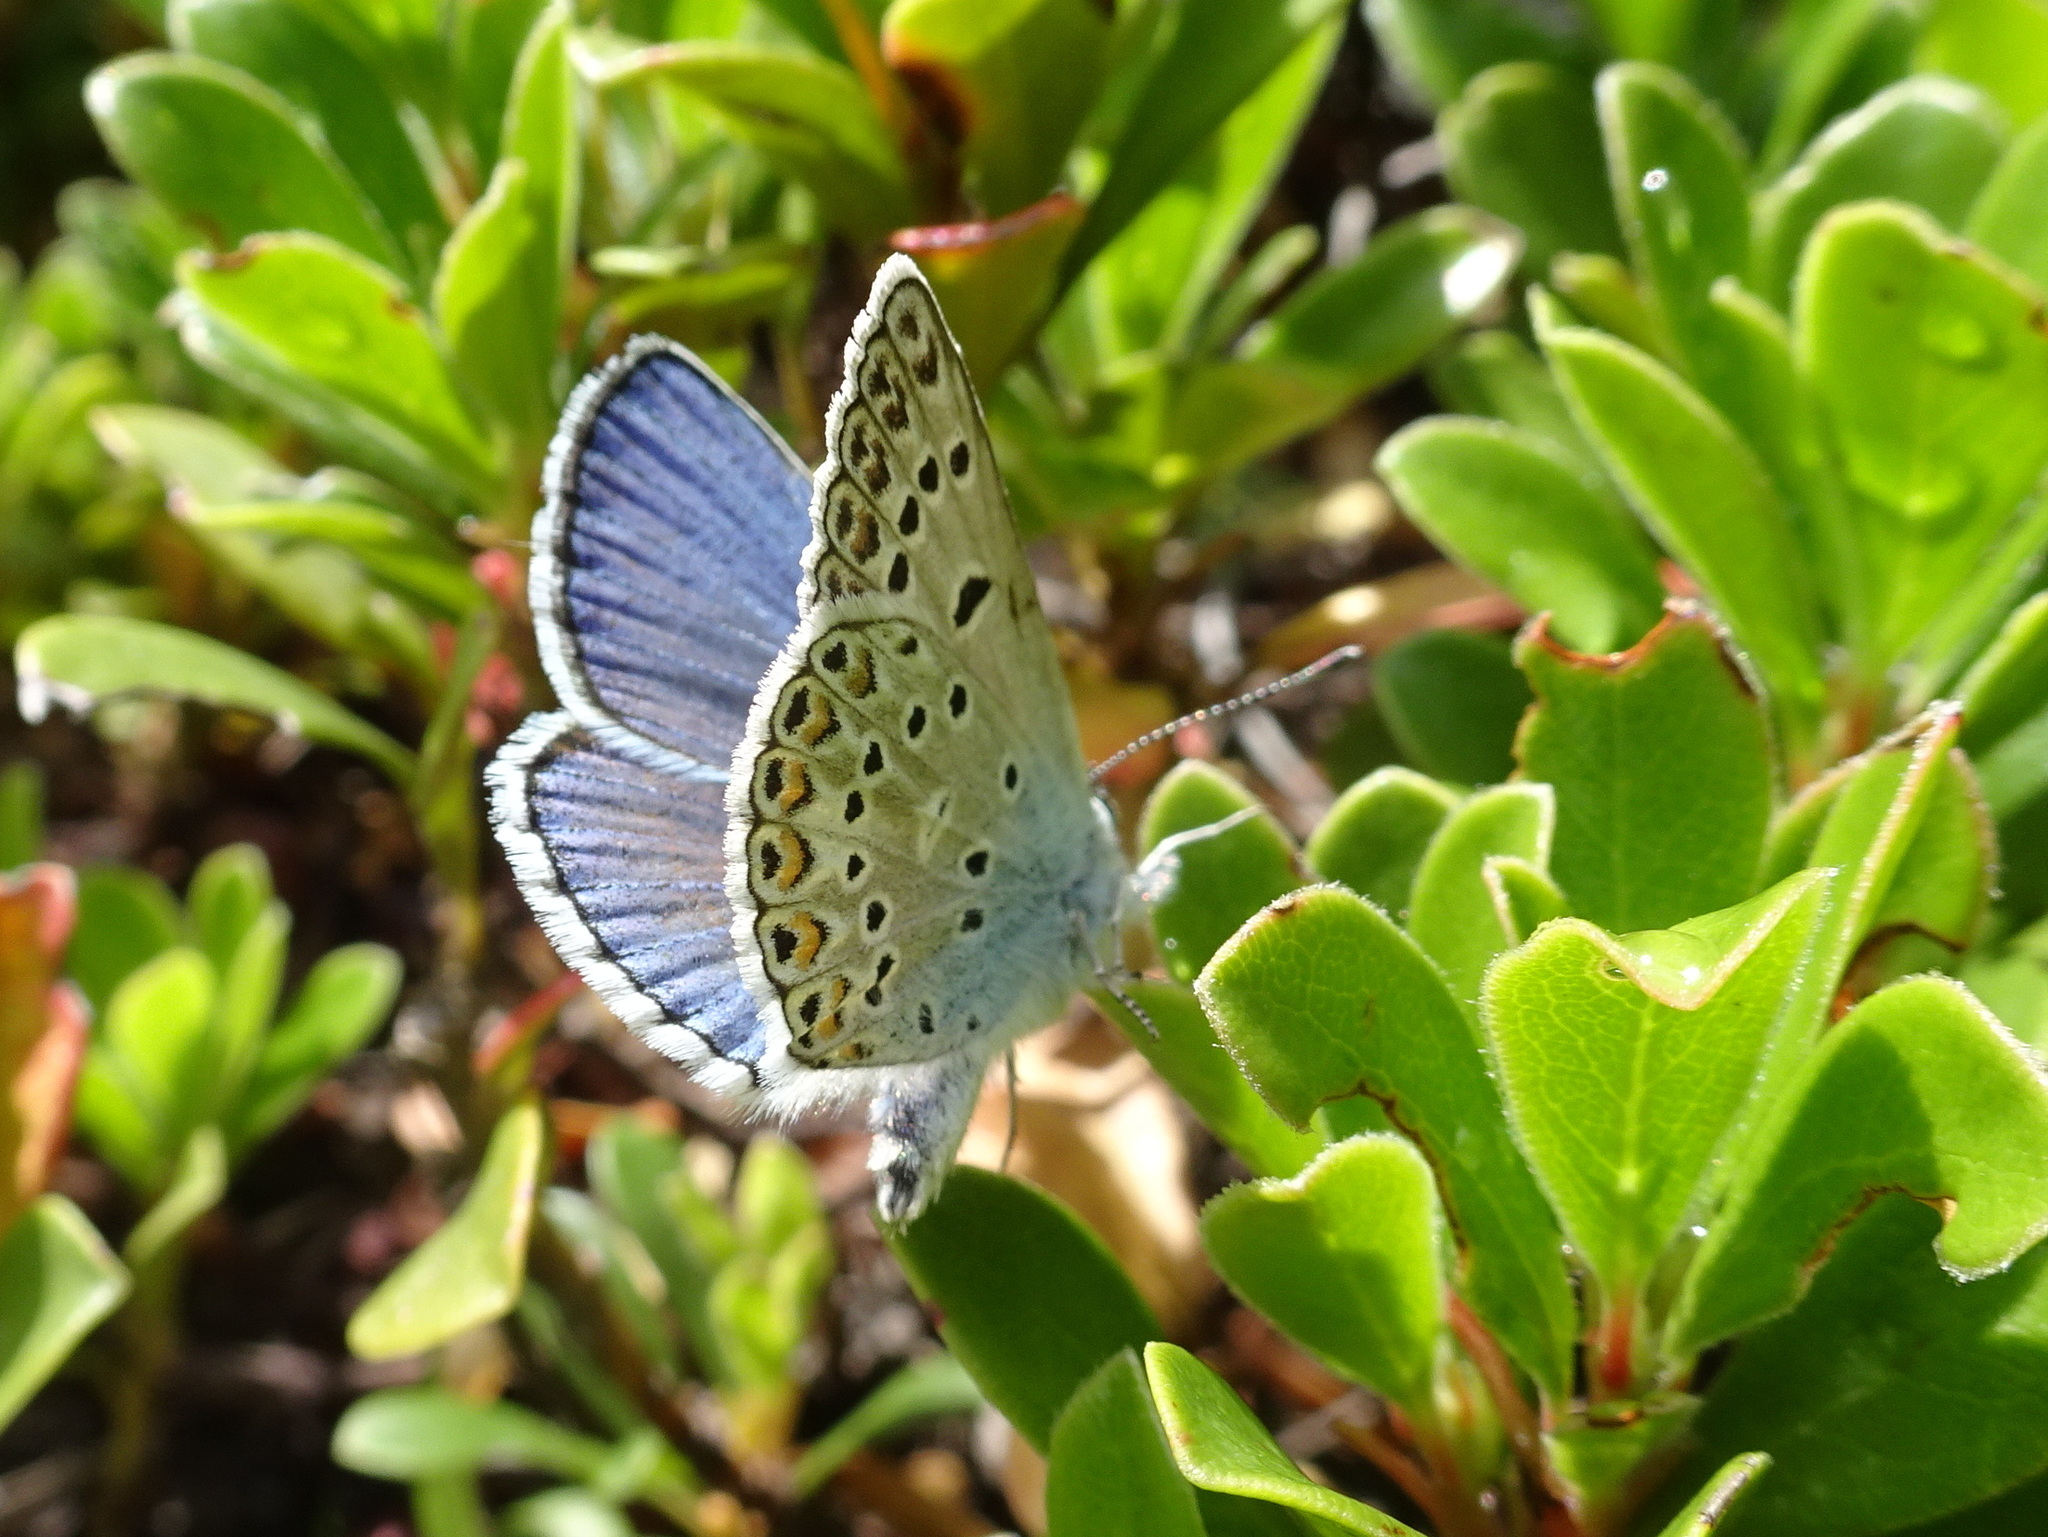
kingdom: Animalia
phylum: Arthropoda
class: Insecta
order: Lepidoptera
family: Lycaenidae
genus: Plebicula
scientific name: Plebicula escheri
